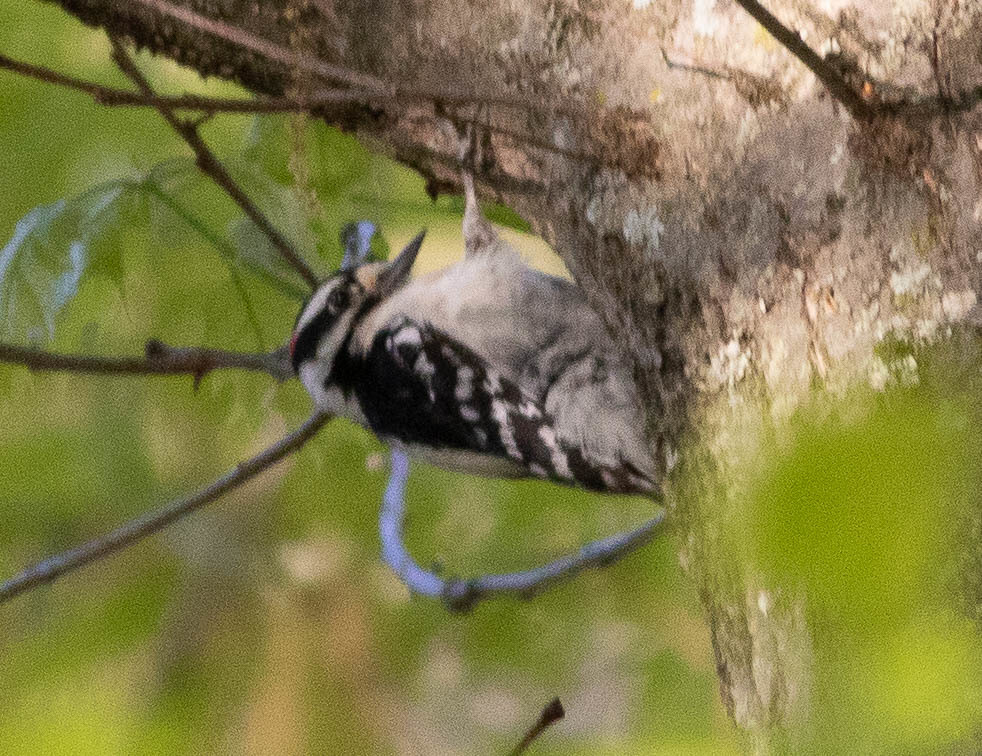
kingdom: Animalia
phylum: Chordata
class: Aves
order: Piciformes
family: Picidae
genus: Dryobates
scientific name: Dryobates pubescens
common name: Downy woodpecker
